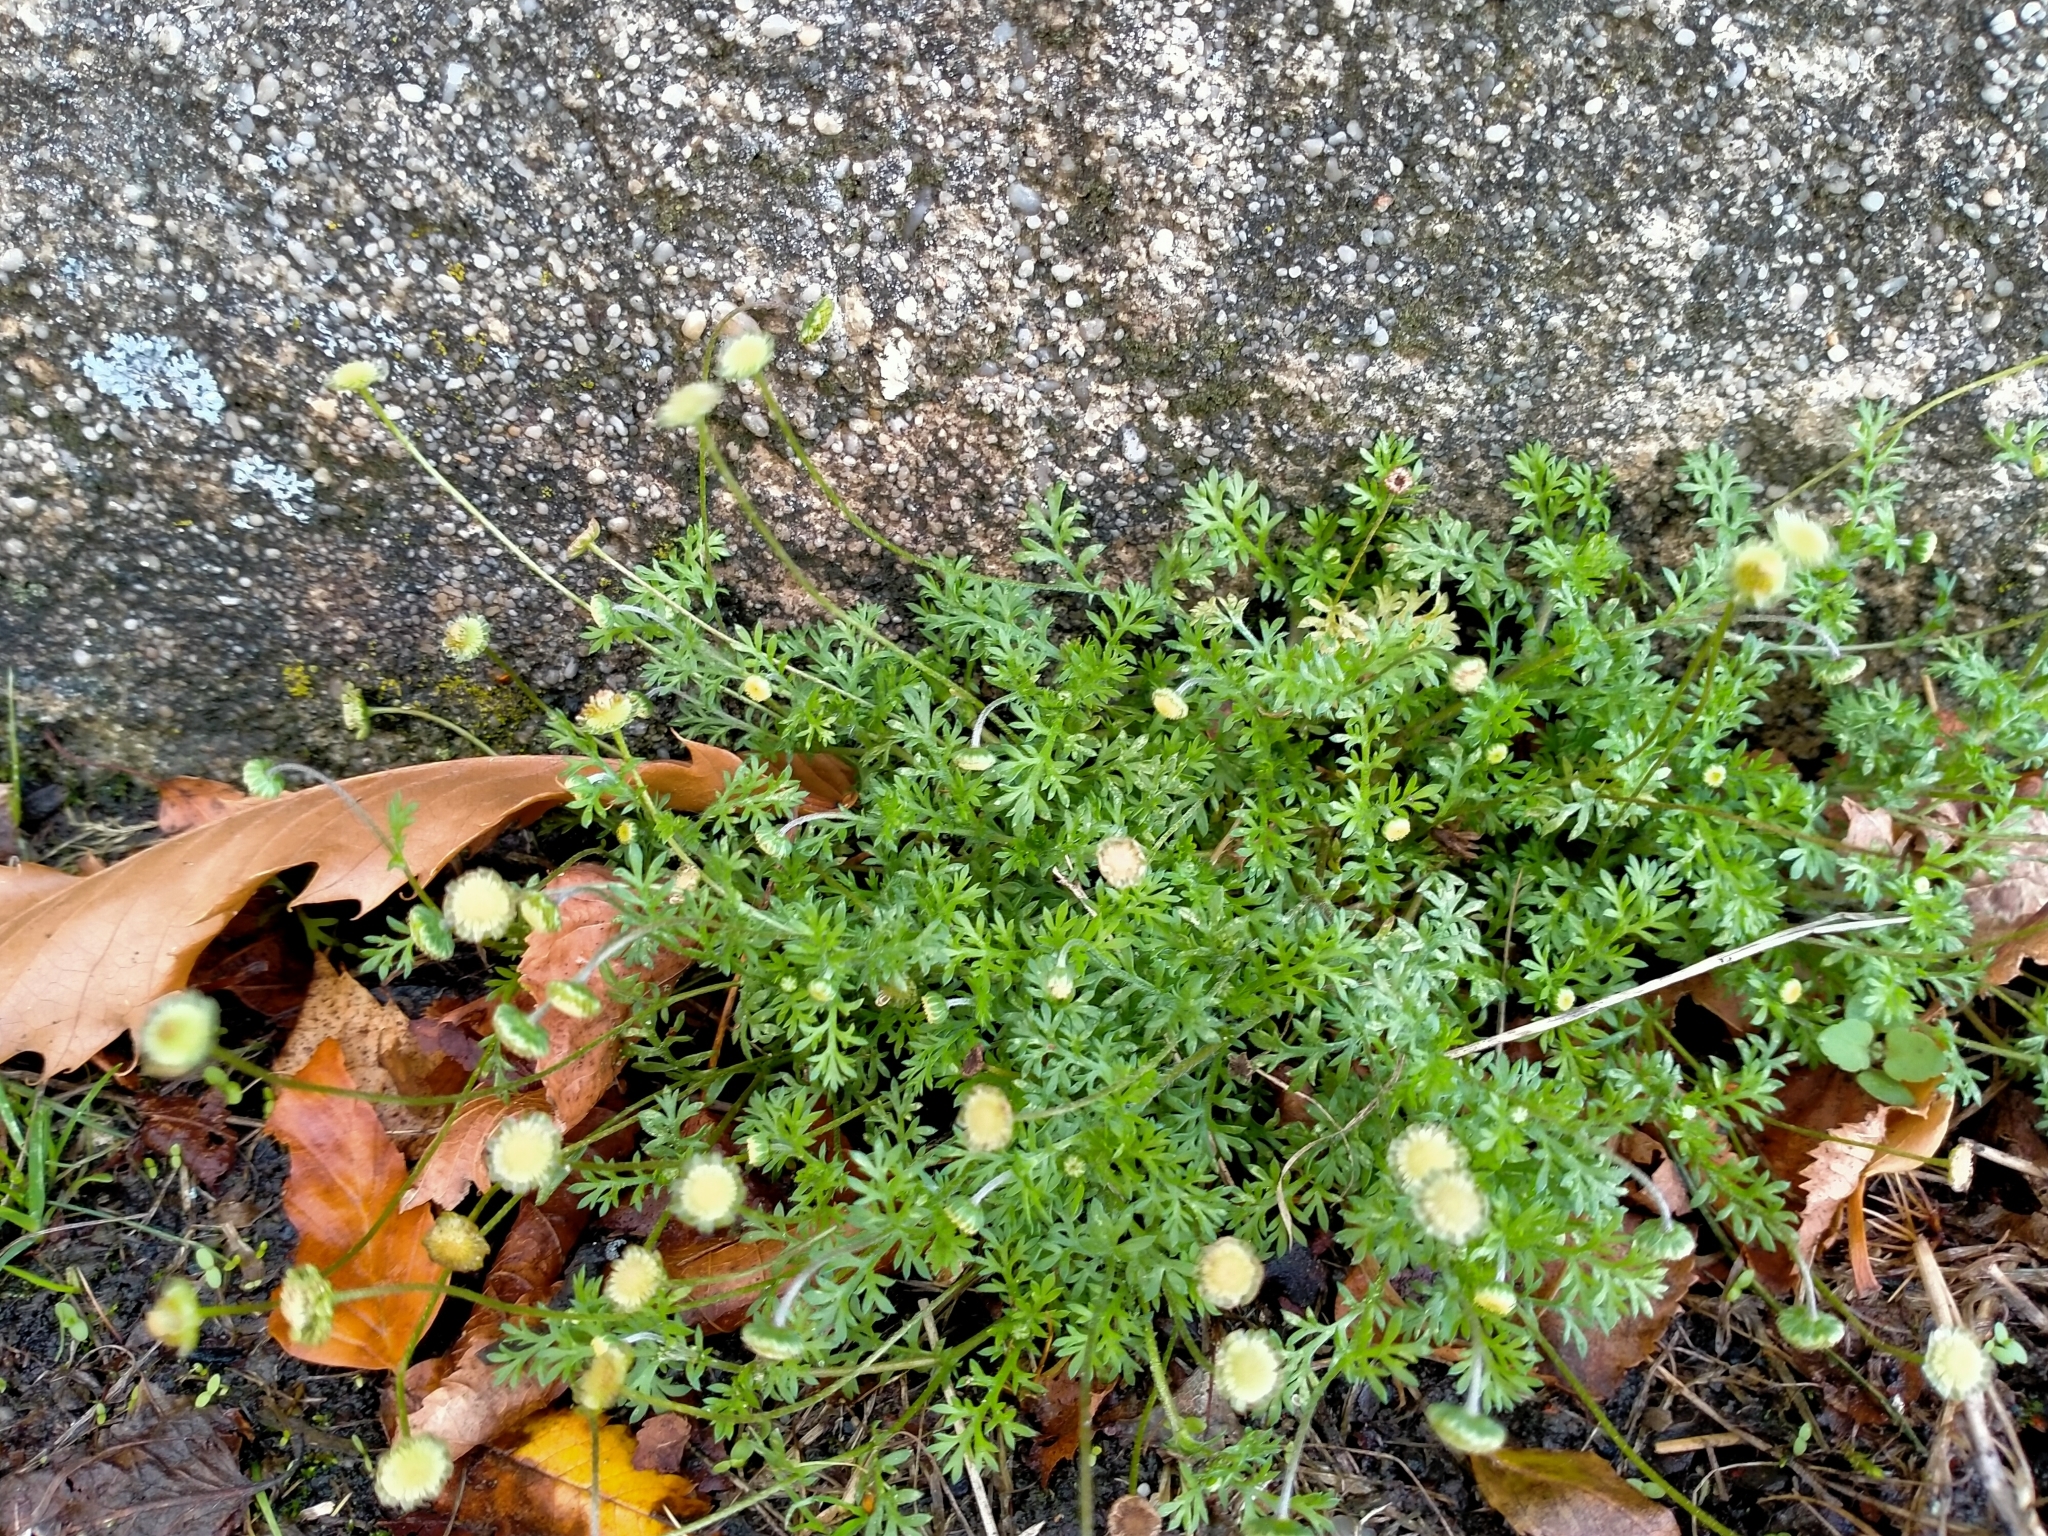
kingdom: Plantae
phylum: Tracheophyta
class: Magnoliopsida
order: Asterales
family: Asteraceae
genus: Cotula
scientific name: Cotula australis
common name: Australian waterbuttons
